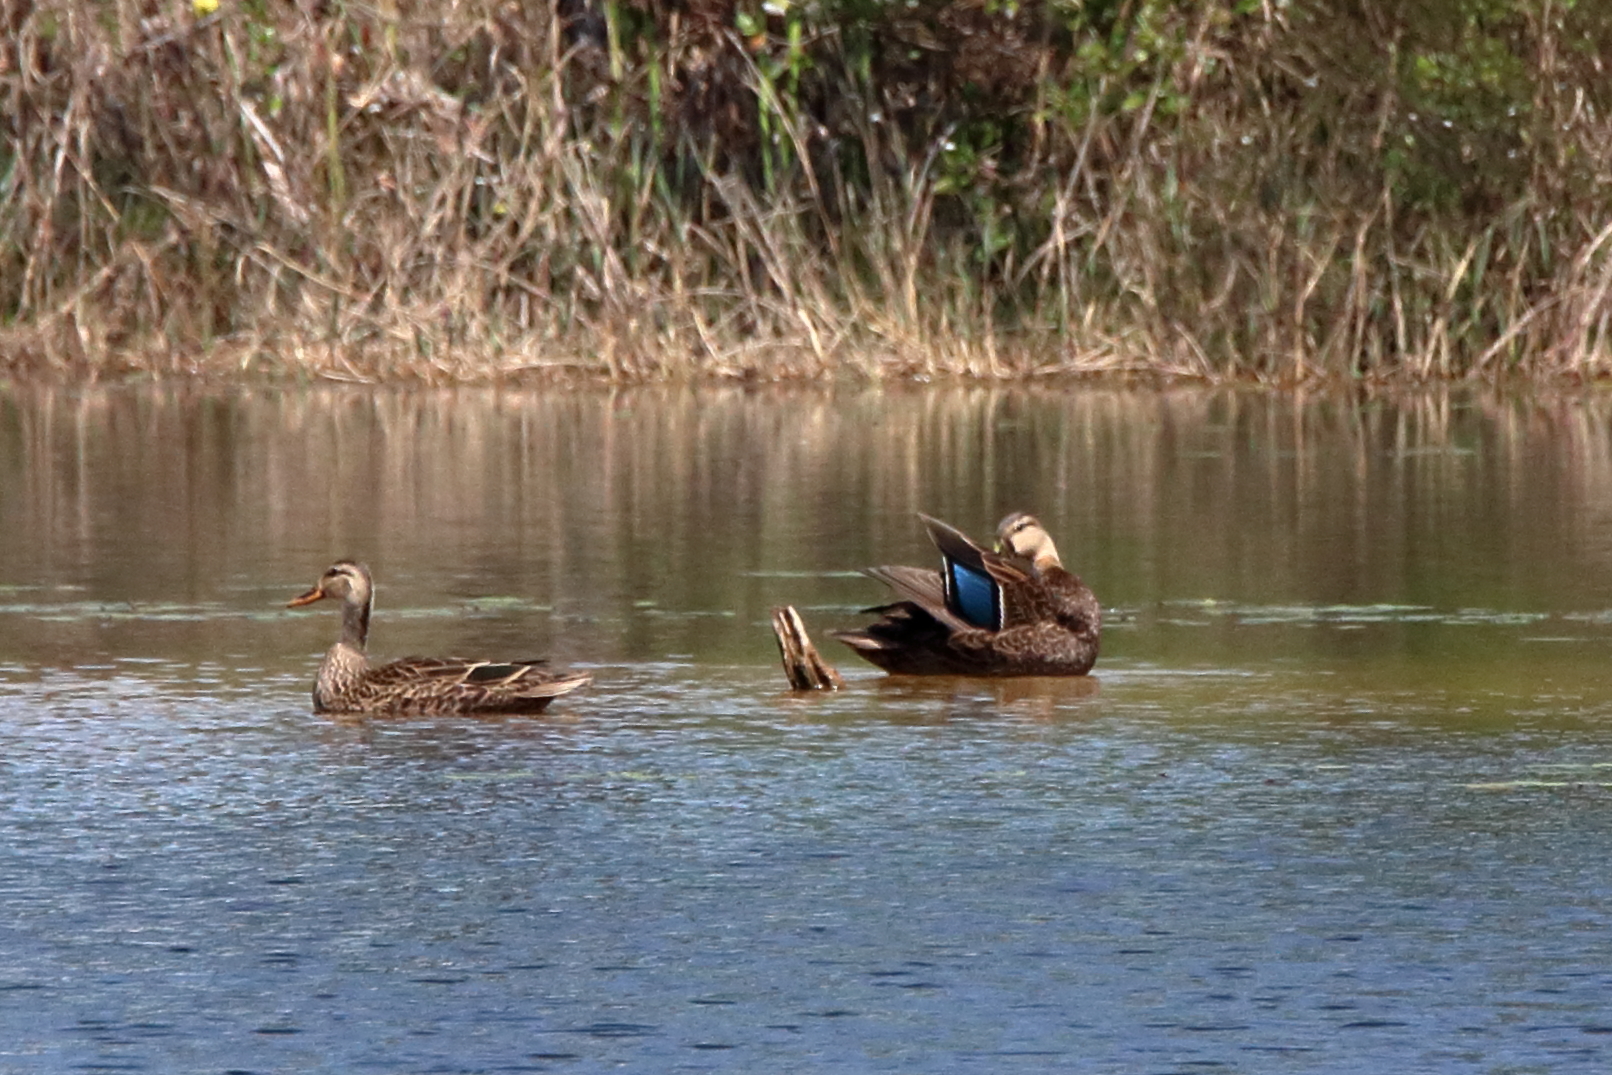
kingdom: Animalia
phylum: Chordata
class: Aves
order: Anseriformes
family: Anatidae
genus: Anas
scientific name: Anas fulvigula
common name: Mottled duck
